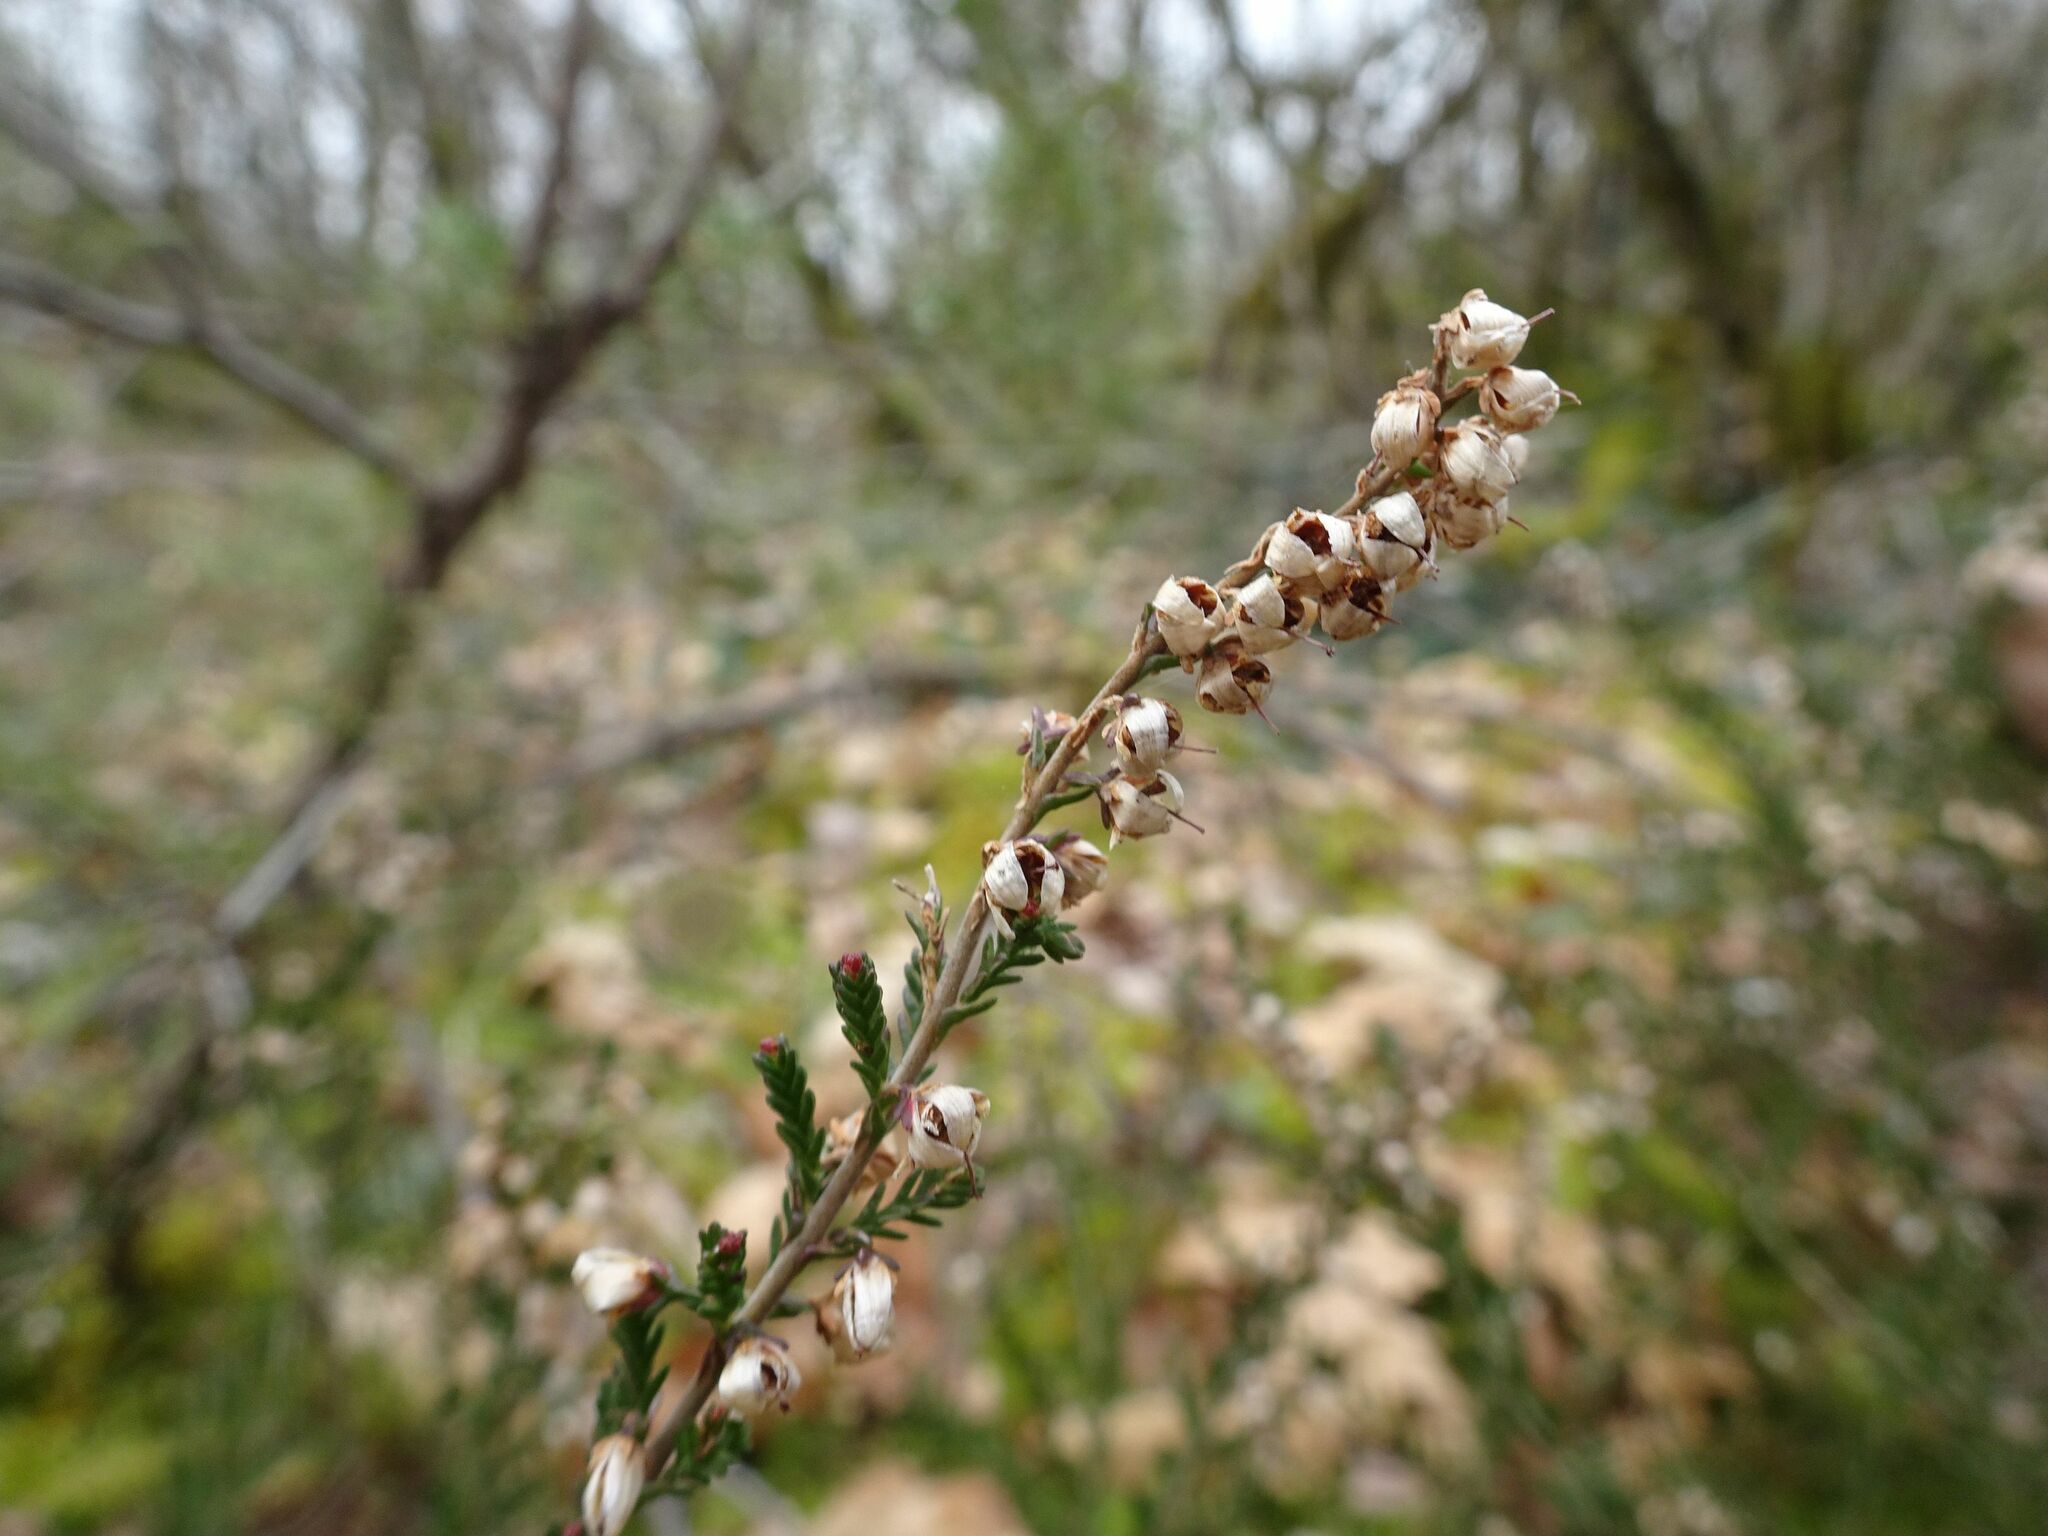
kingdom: Plantae
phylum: Tracheophyta
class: Magnoliopsida
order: Ericales
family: Ericaceae
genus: Calluna
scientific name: Calluna vulgaris
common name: Heather
